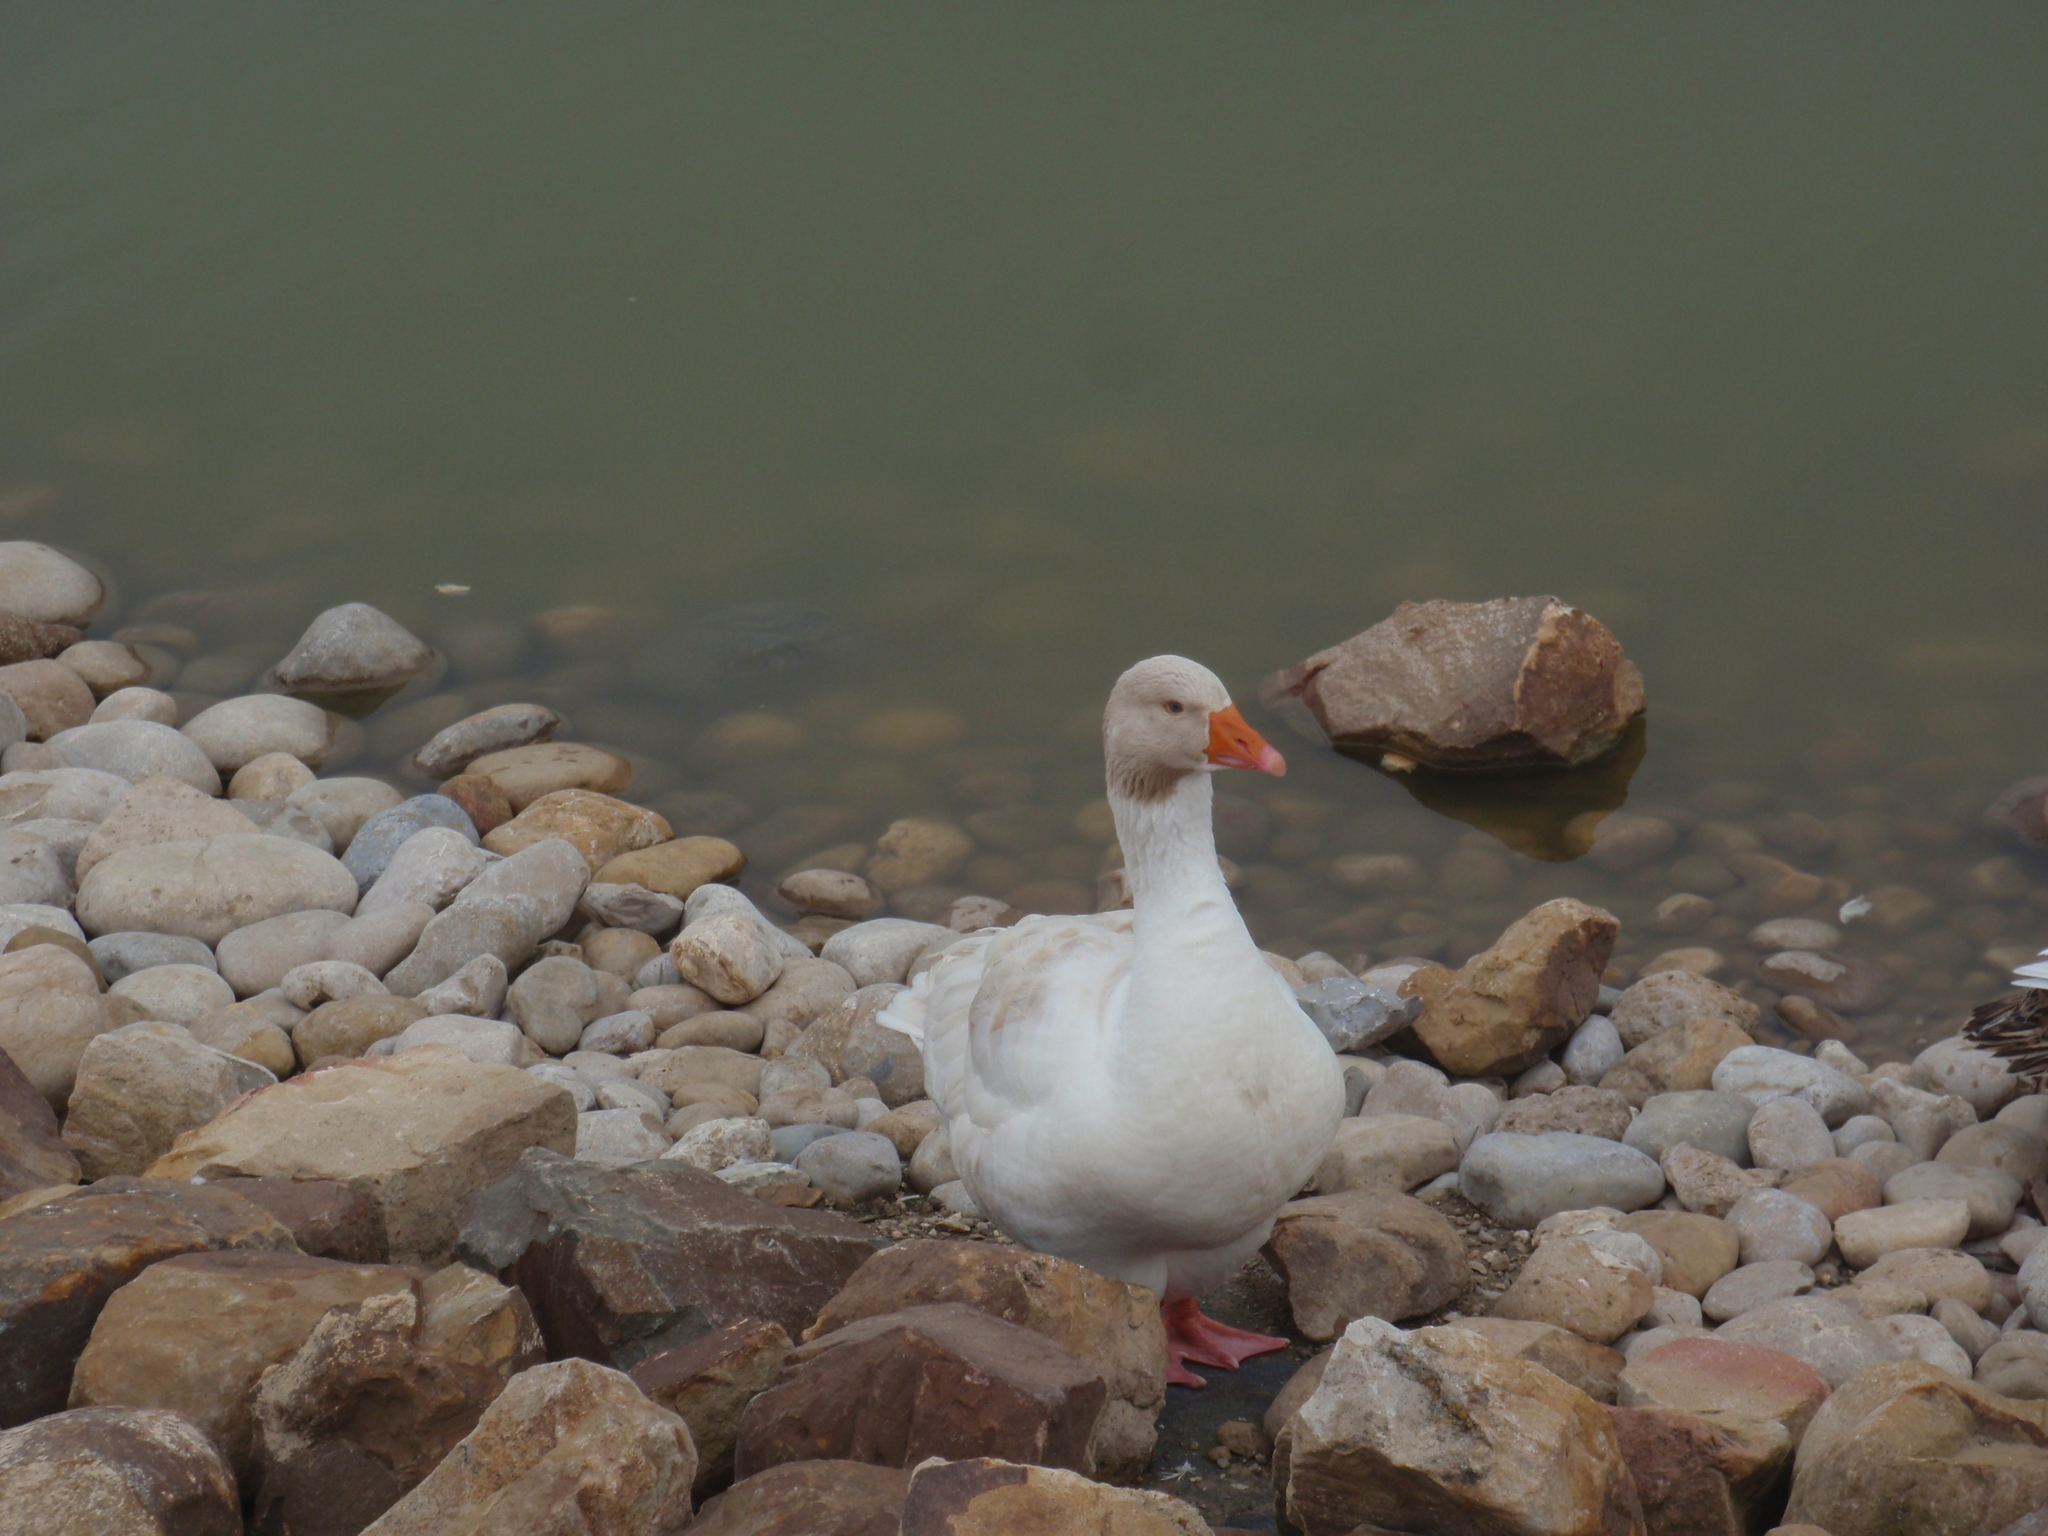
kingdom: Animalia
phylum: Chordata
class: Aves
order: Anseriformes
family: Anatidae
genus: Anser
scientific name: Anser anser
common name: Greylag goose
